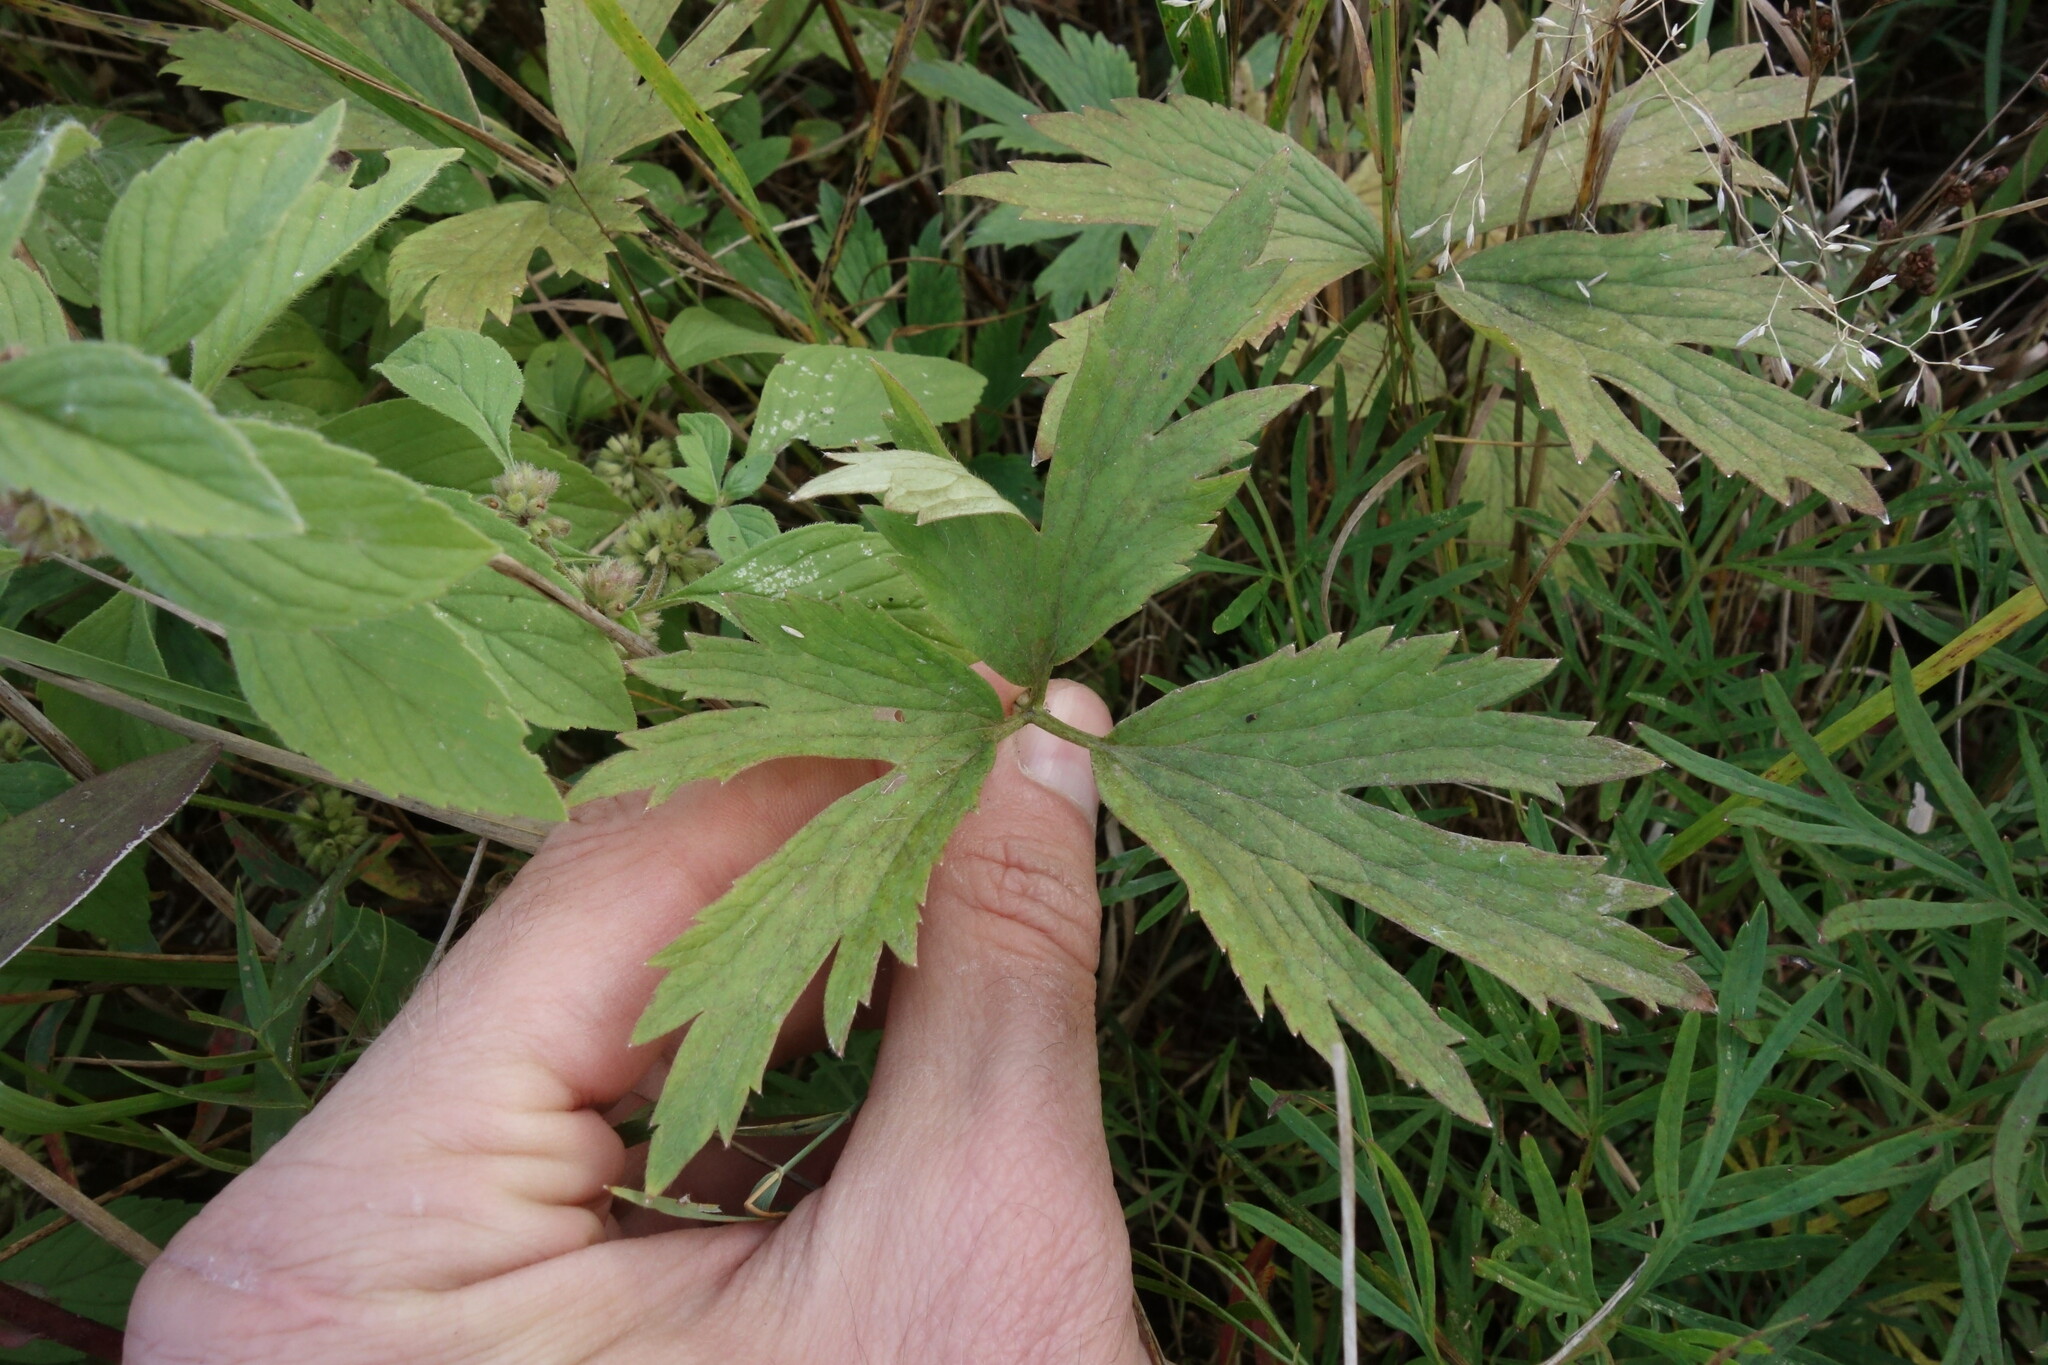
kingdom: Plantae
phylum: Tracheophyta
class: Magnoliopsida
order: Ranunculales
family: Ranunculaceae
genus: Ranunculus
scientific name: Ranunculus repens
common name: Creeping buttercup
